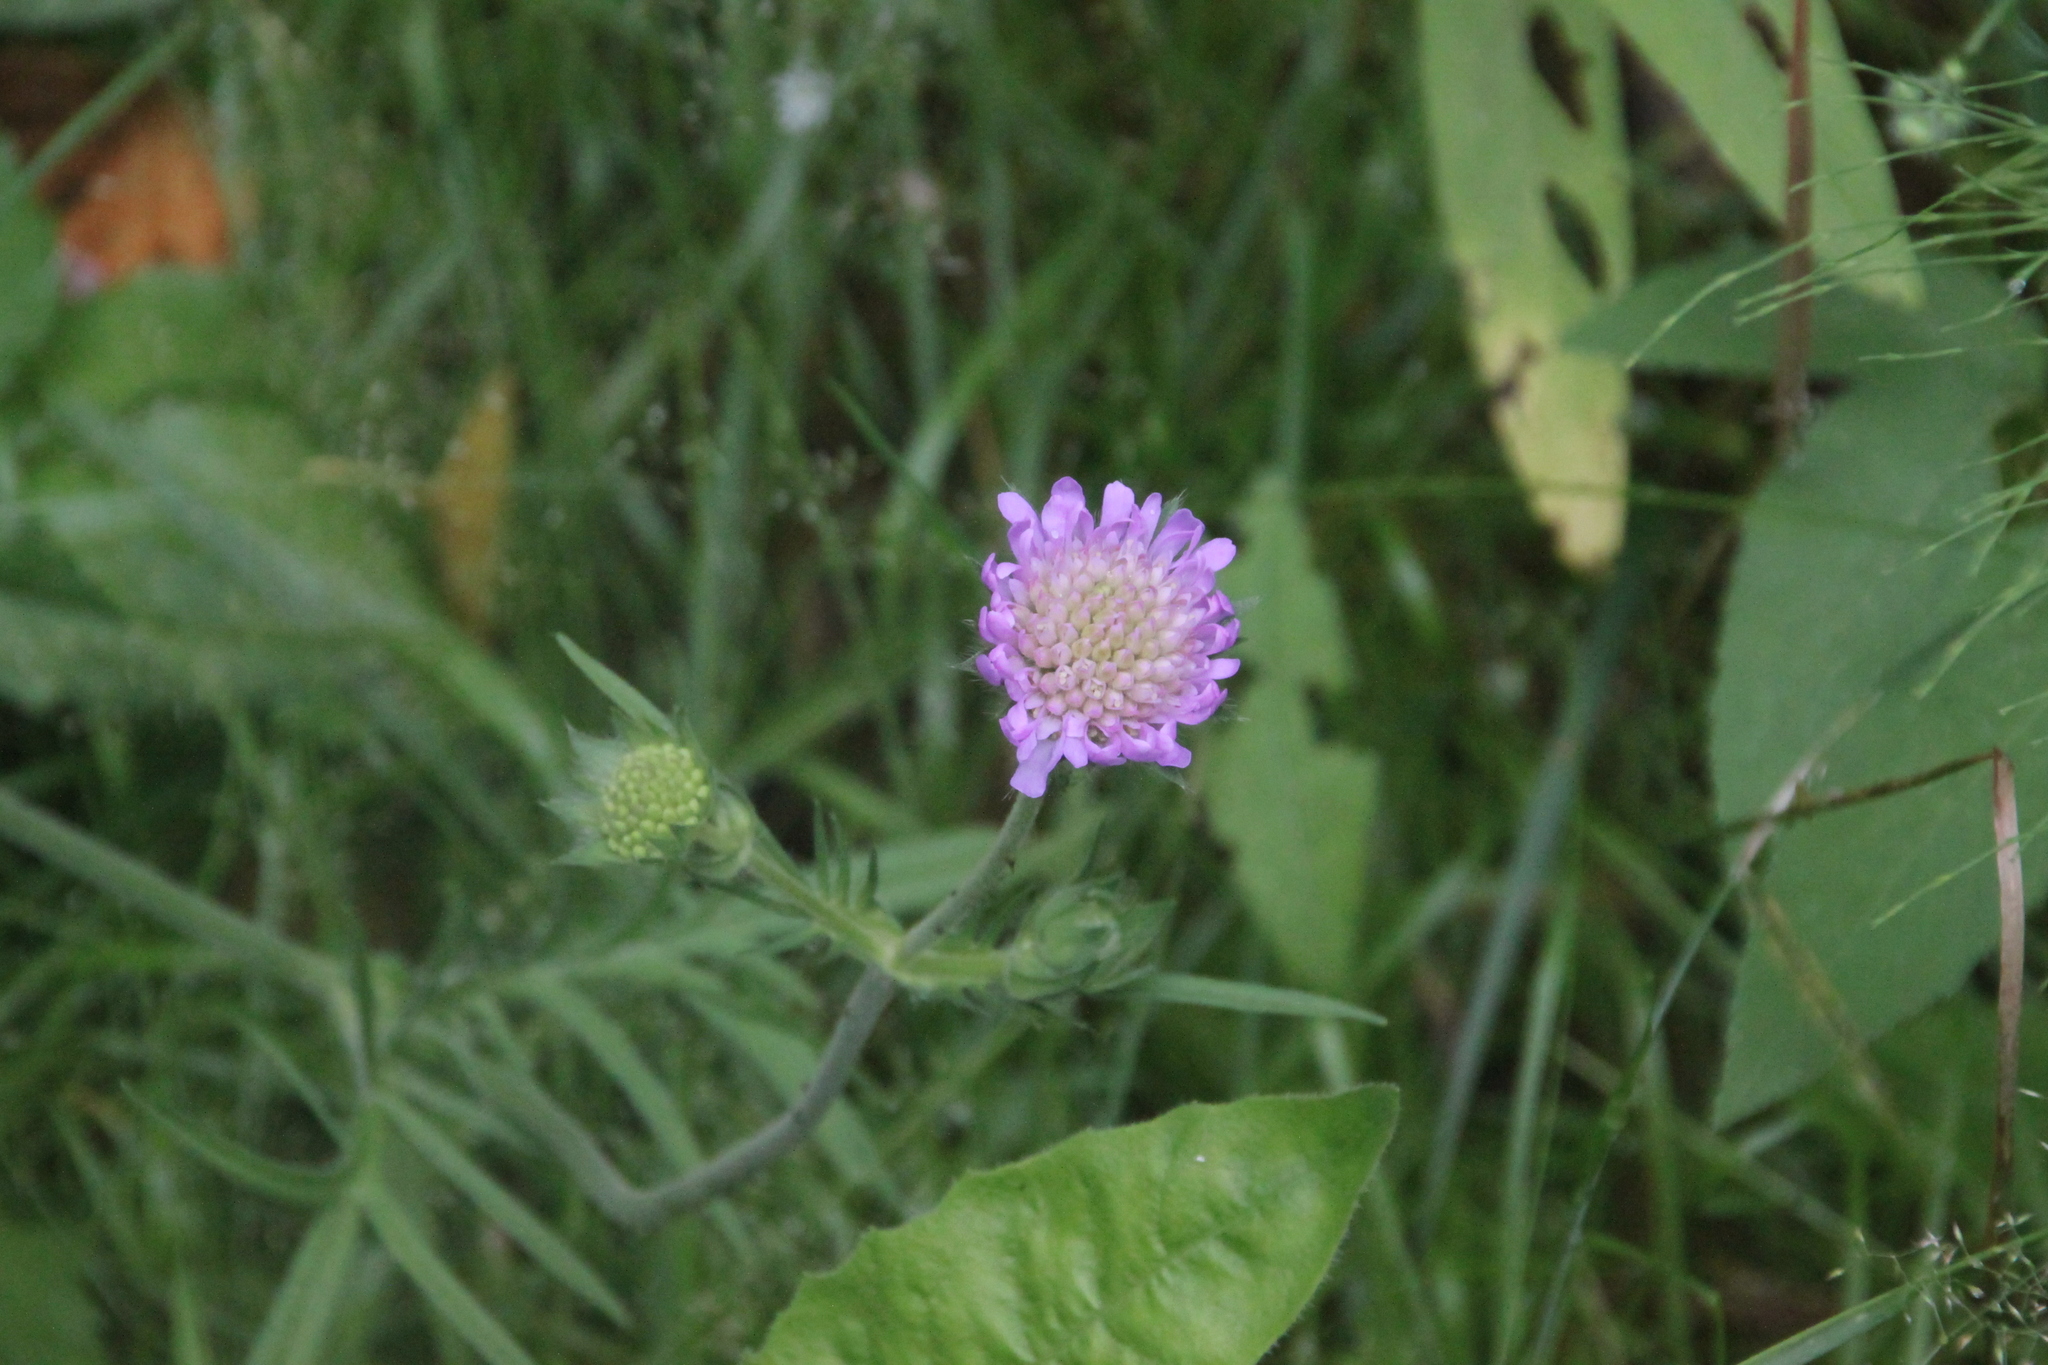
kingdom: Plantae
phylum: Tracheophyta
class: Magnoliopsida
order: Dipsacales
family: Caprifoliaceae
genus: Knautia
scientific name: Knautia arvensis
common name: Field scabiosa
